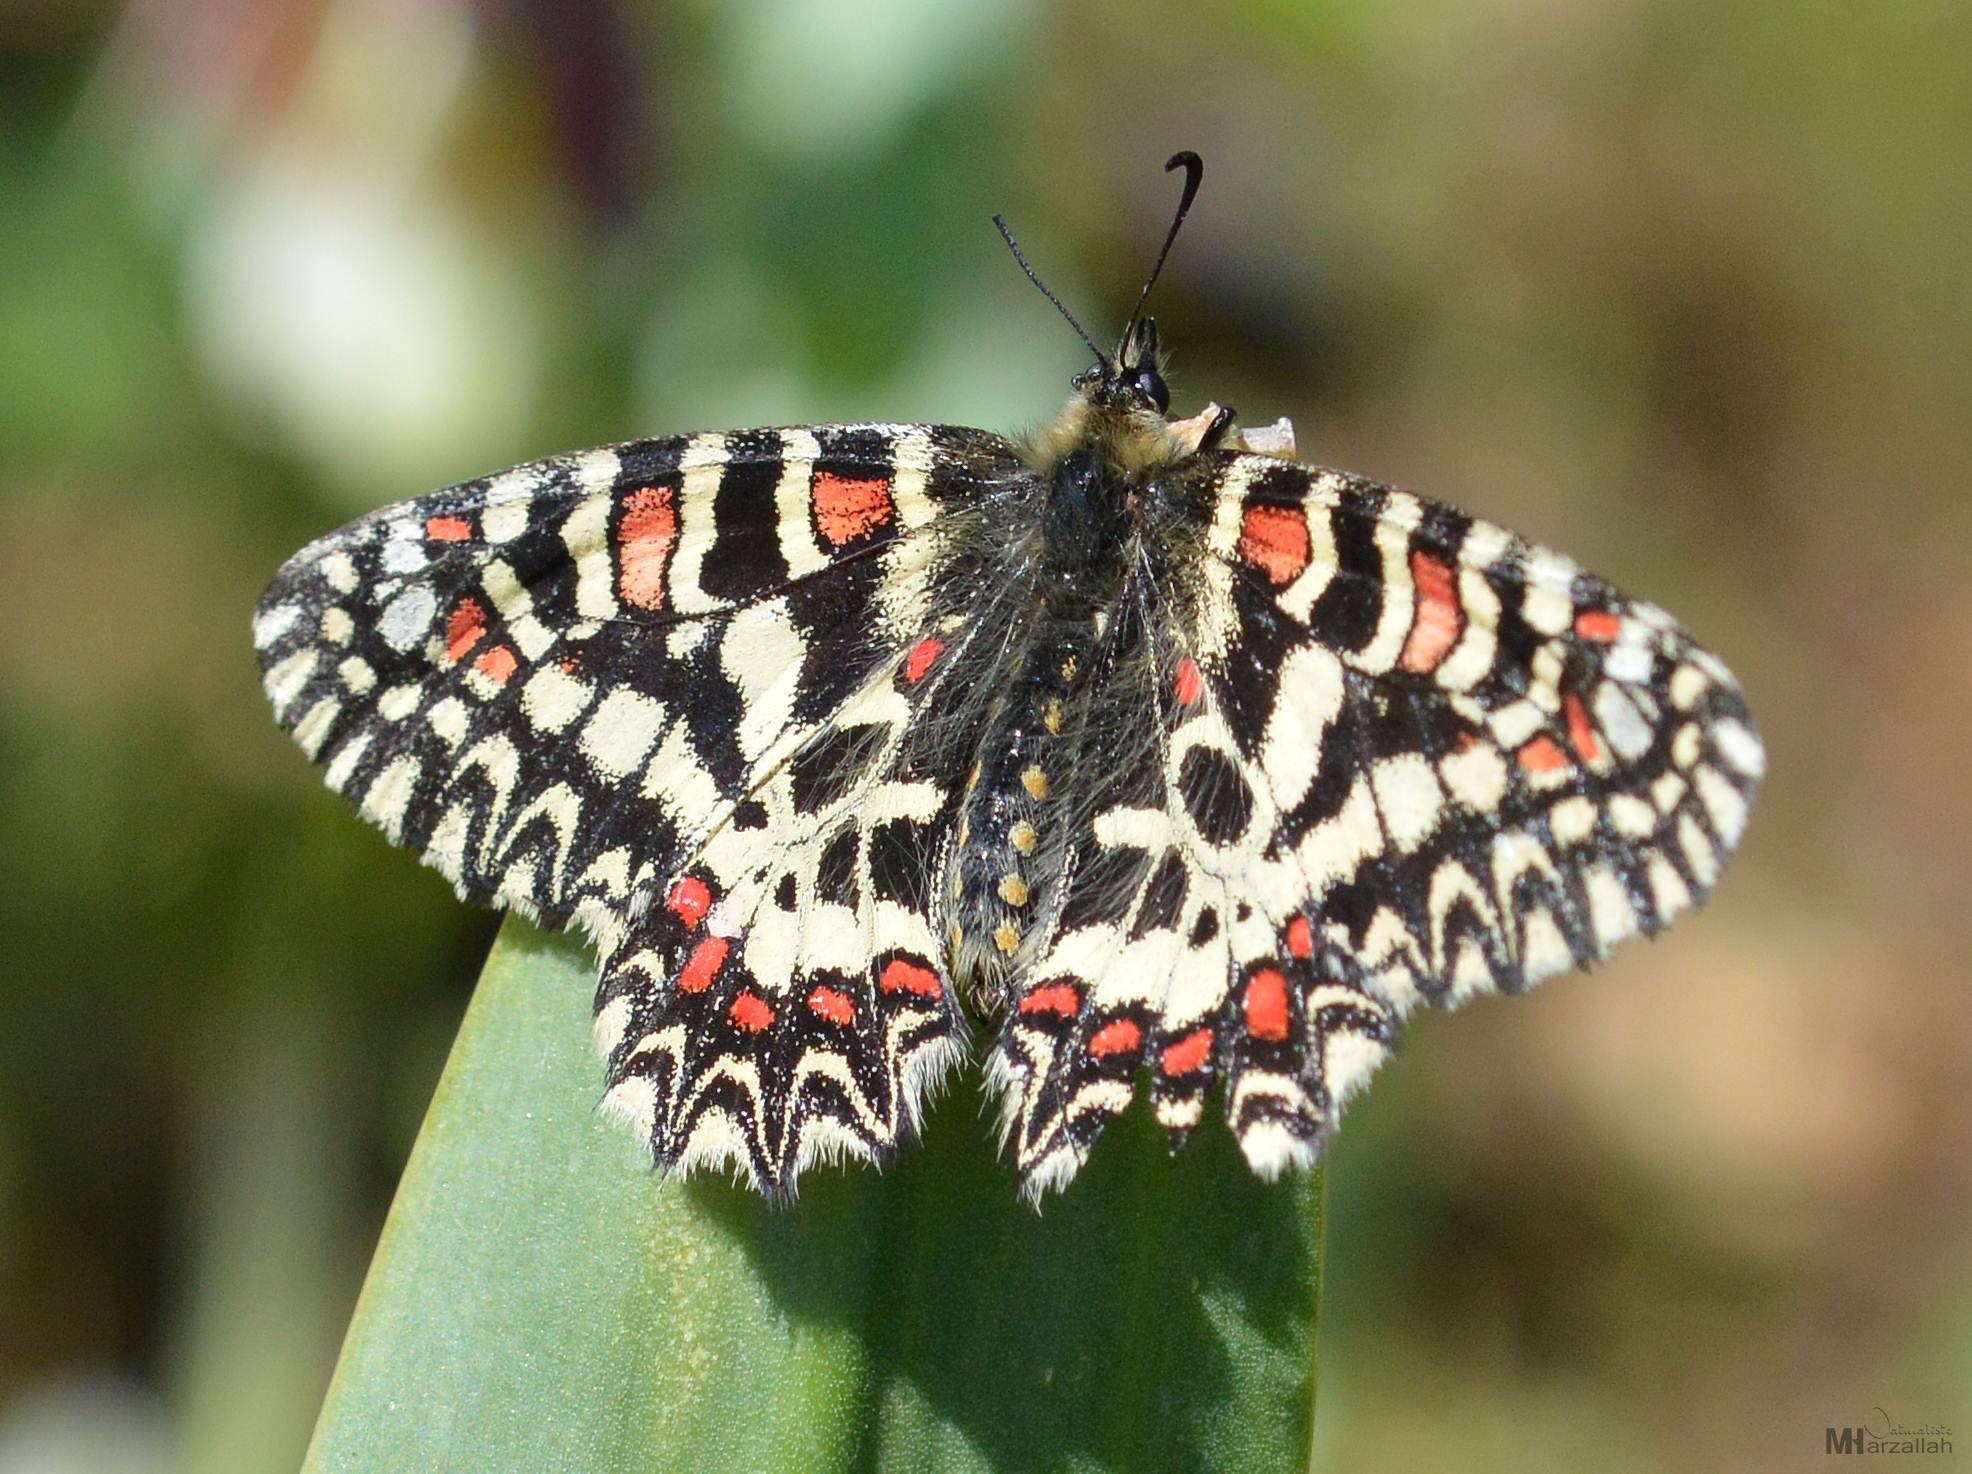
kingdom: Animalia
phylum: Arthropoda
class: Insecta
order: Lepidoptera
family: Papilionidae
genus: Zerynthia
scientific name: Zerynthia rumina
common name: Spanish festoon
